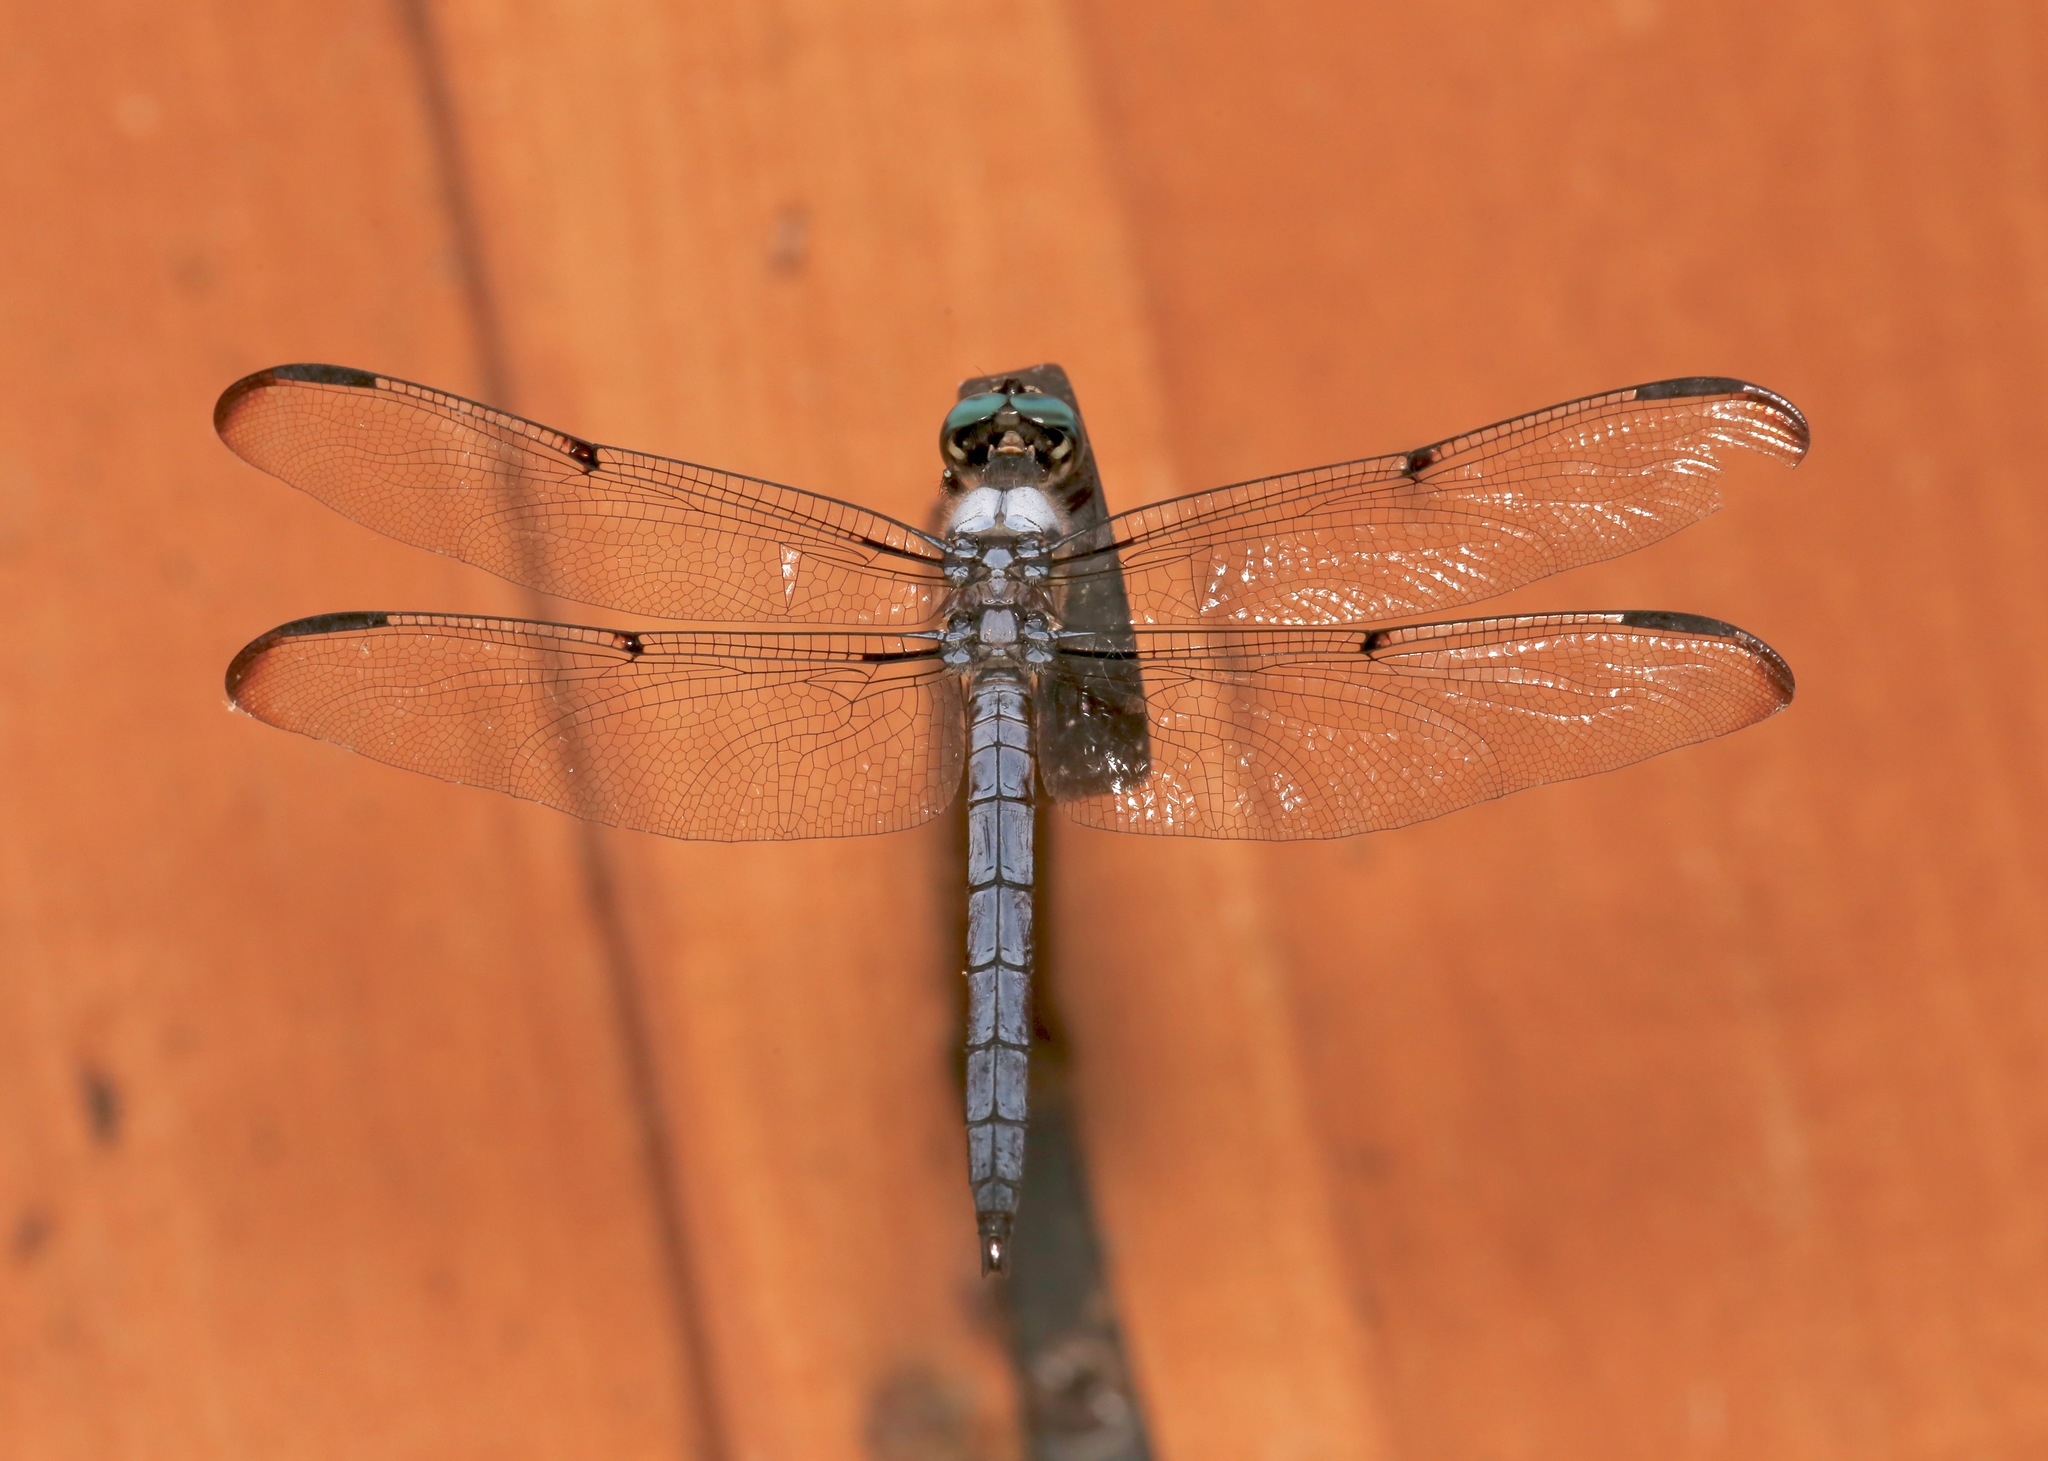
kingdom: Animalia
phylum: Arthropoda
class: Insecta
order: Odonata
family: Libellulidae
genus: Libellula
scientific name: Libellula vibrans
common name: Great blue skimmer
